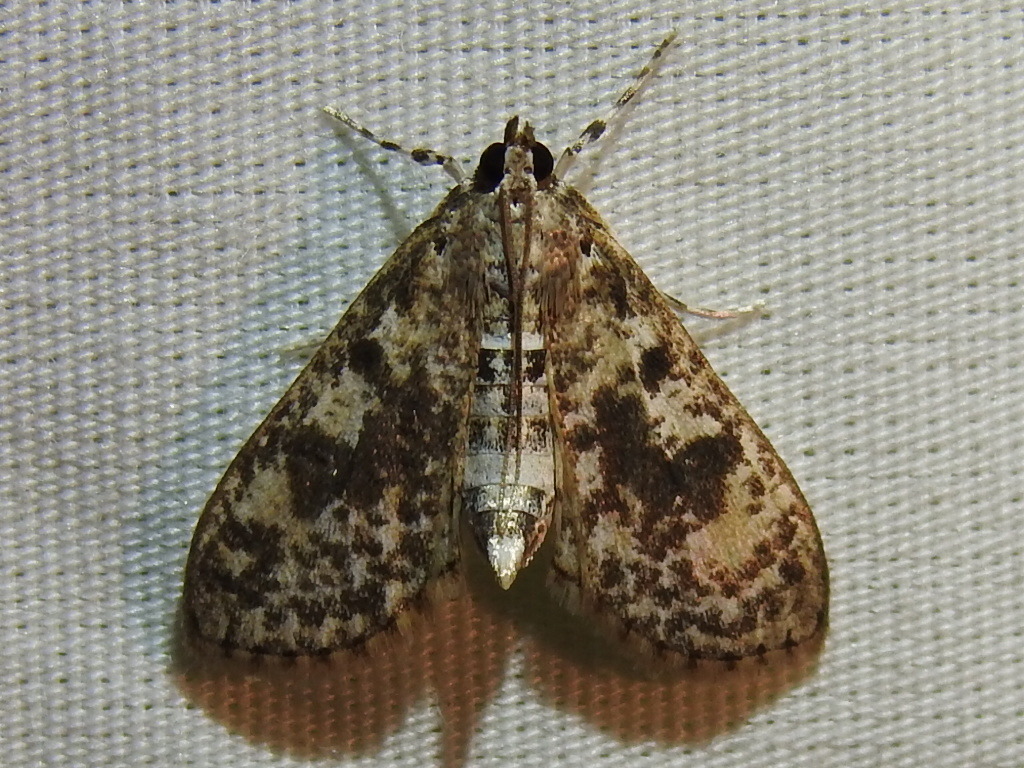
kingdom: Animalia
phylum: Arthropoda
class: Insecta
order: Lepidoptera
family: Crambidae
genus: Palpita
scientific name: Palpita magniferalis
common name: Splendid palpita moth
